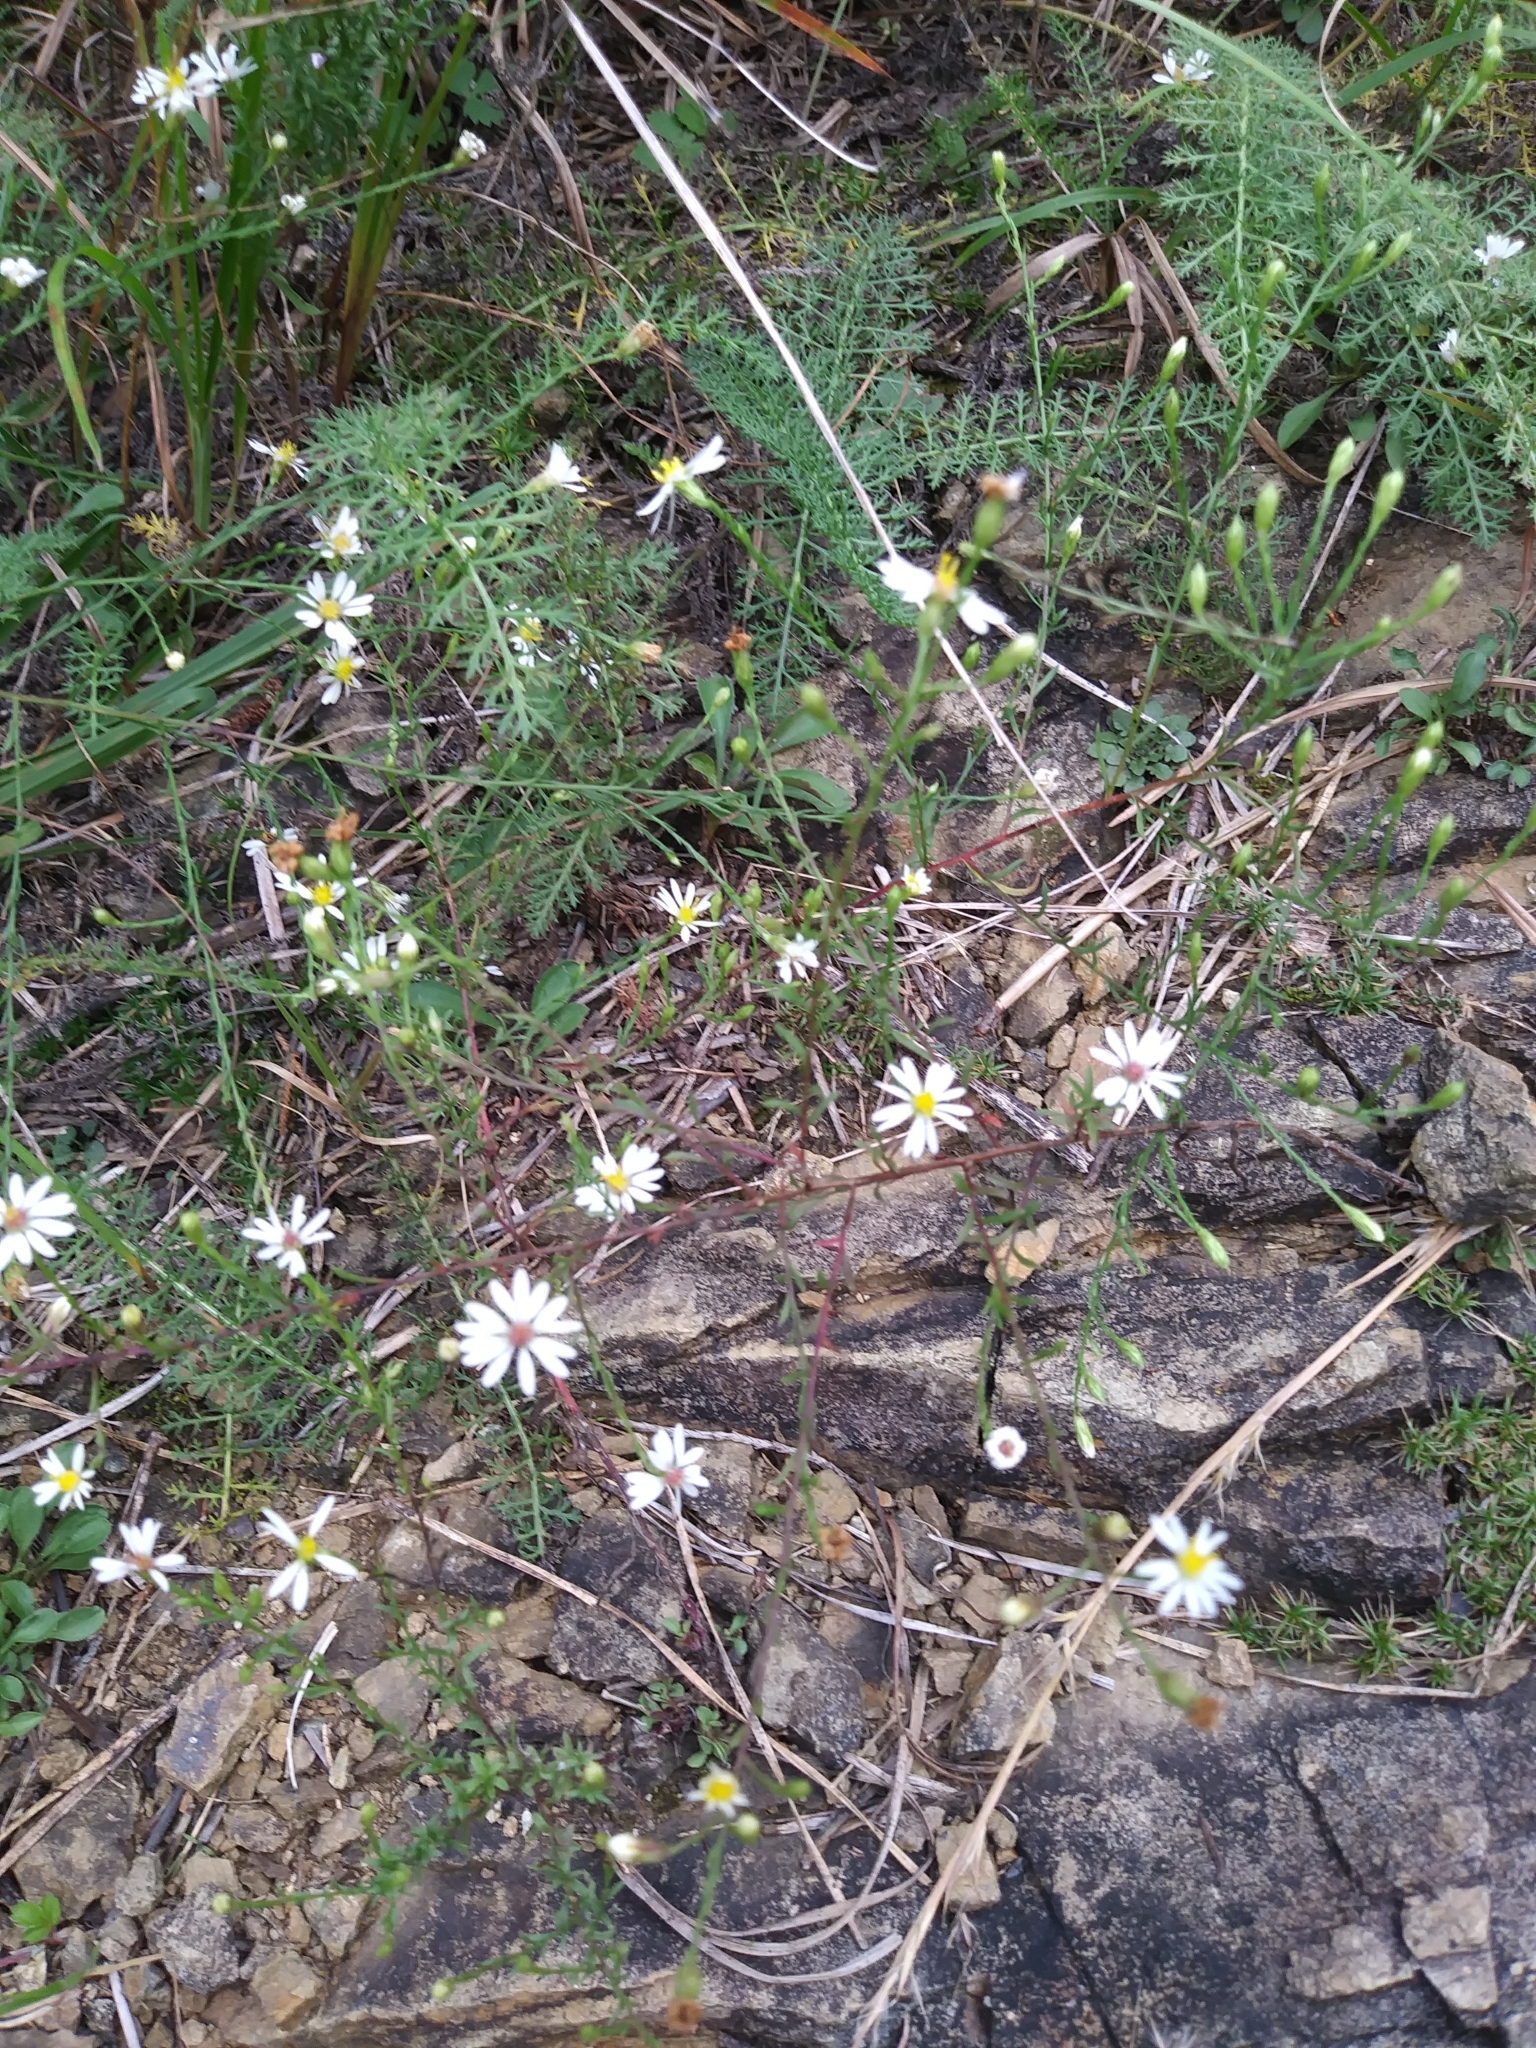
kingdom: Plantae
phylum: Tracheophyta
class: Magnoliopsida
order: Asterales
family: Asteraceae
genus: Symphyotrichum
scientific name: Symphyotrichum depauperatum
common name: Serpentine aster
